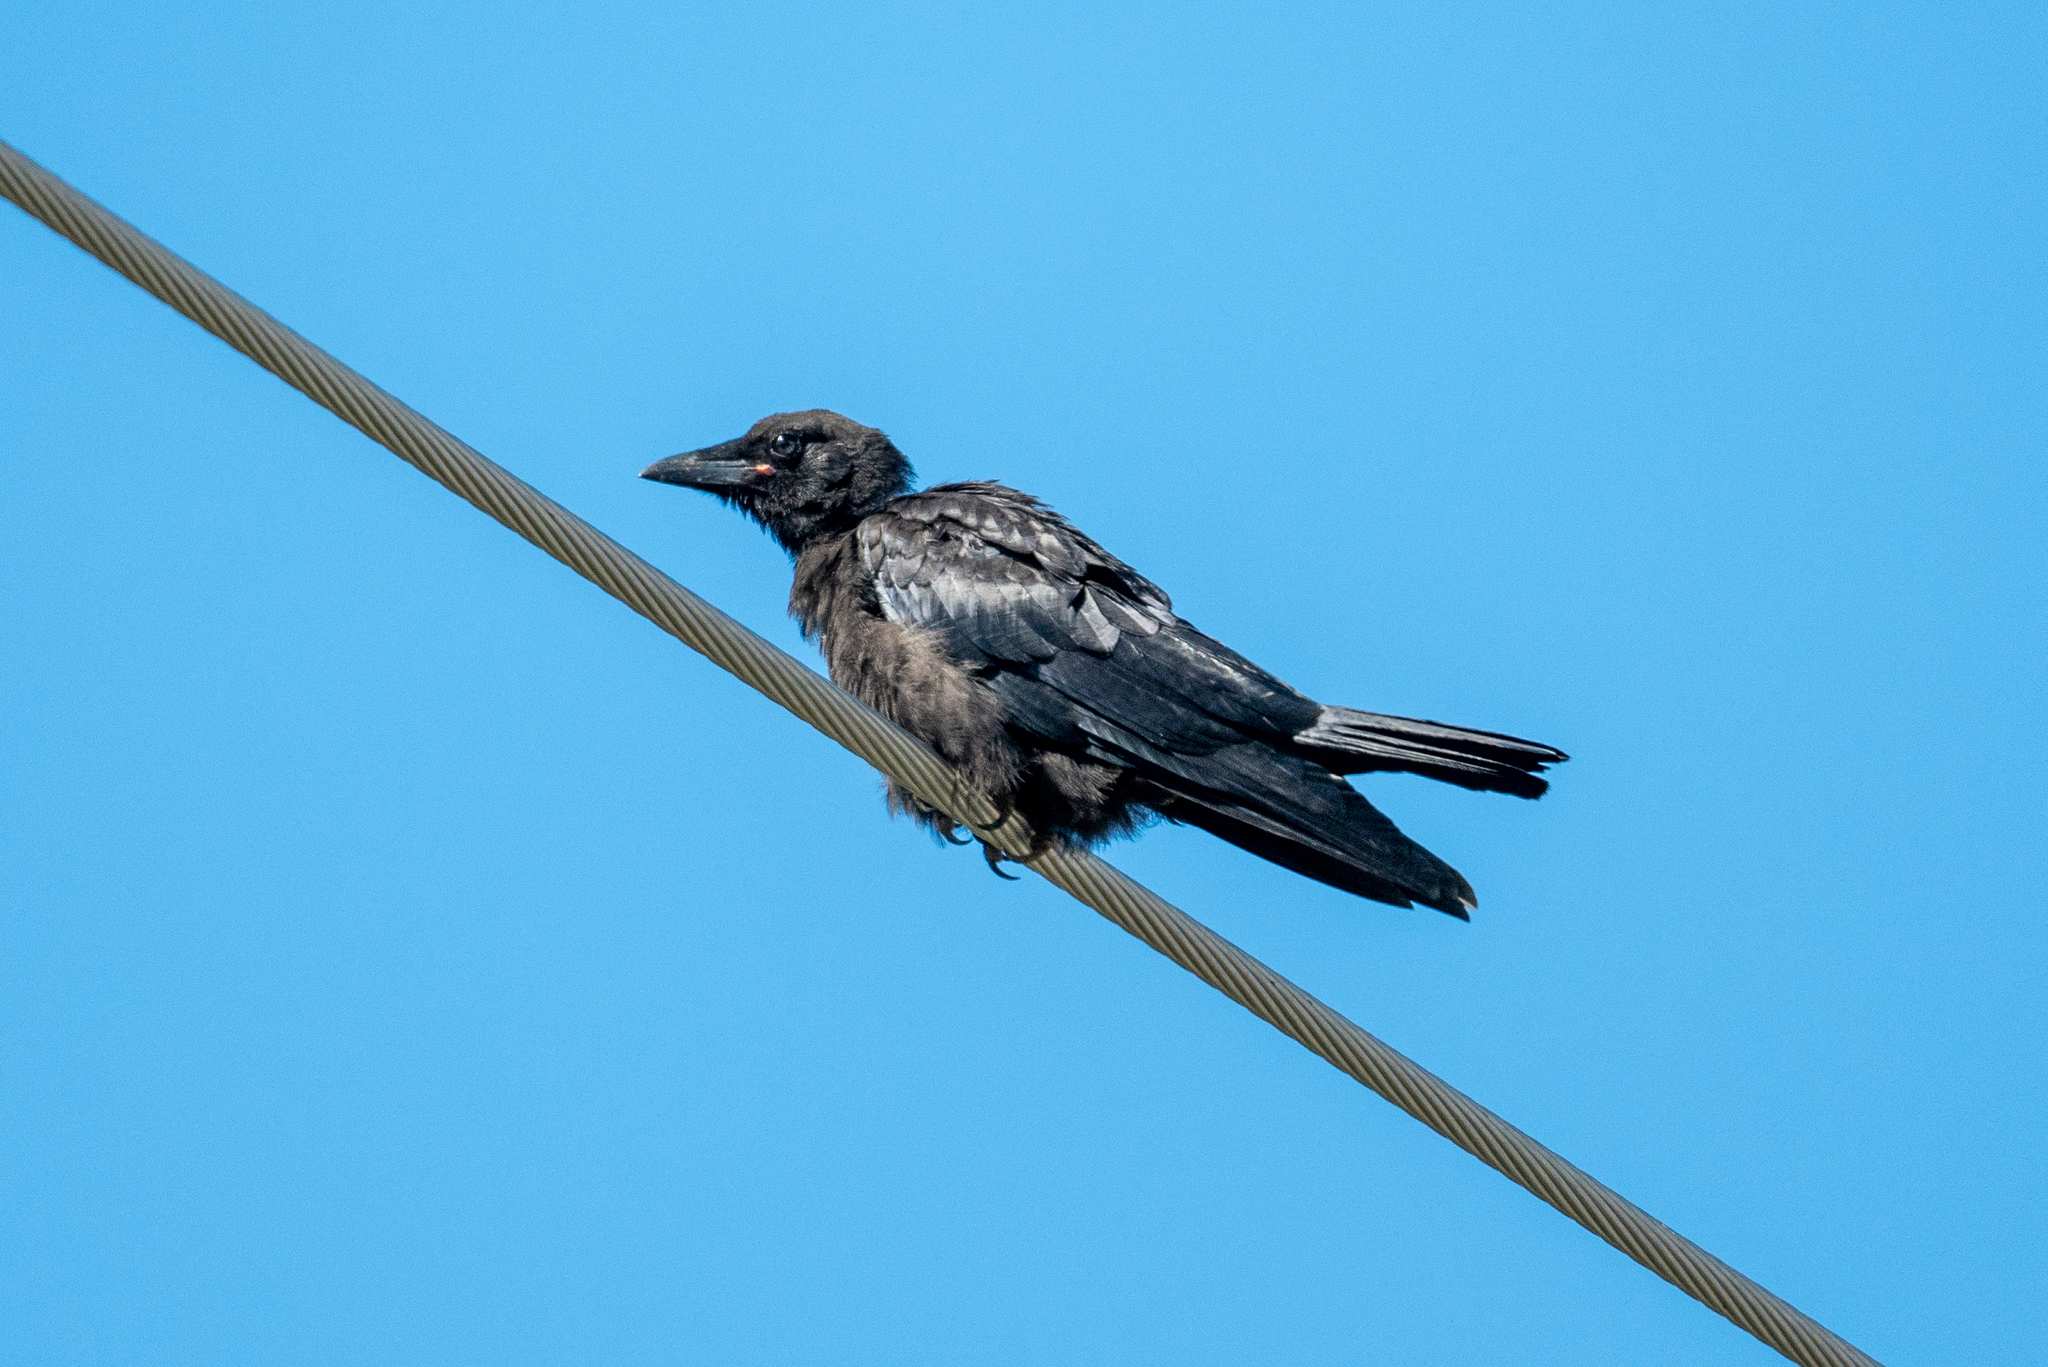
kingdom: Animalia
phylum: Chordata
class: Aves
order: Passeriformes
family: Corvidae
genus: Corvus
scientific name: Corvus brachyrhynchos
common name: American crow
